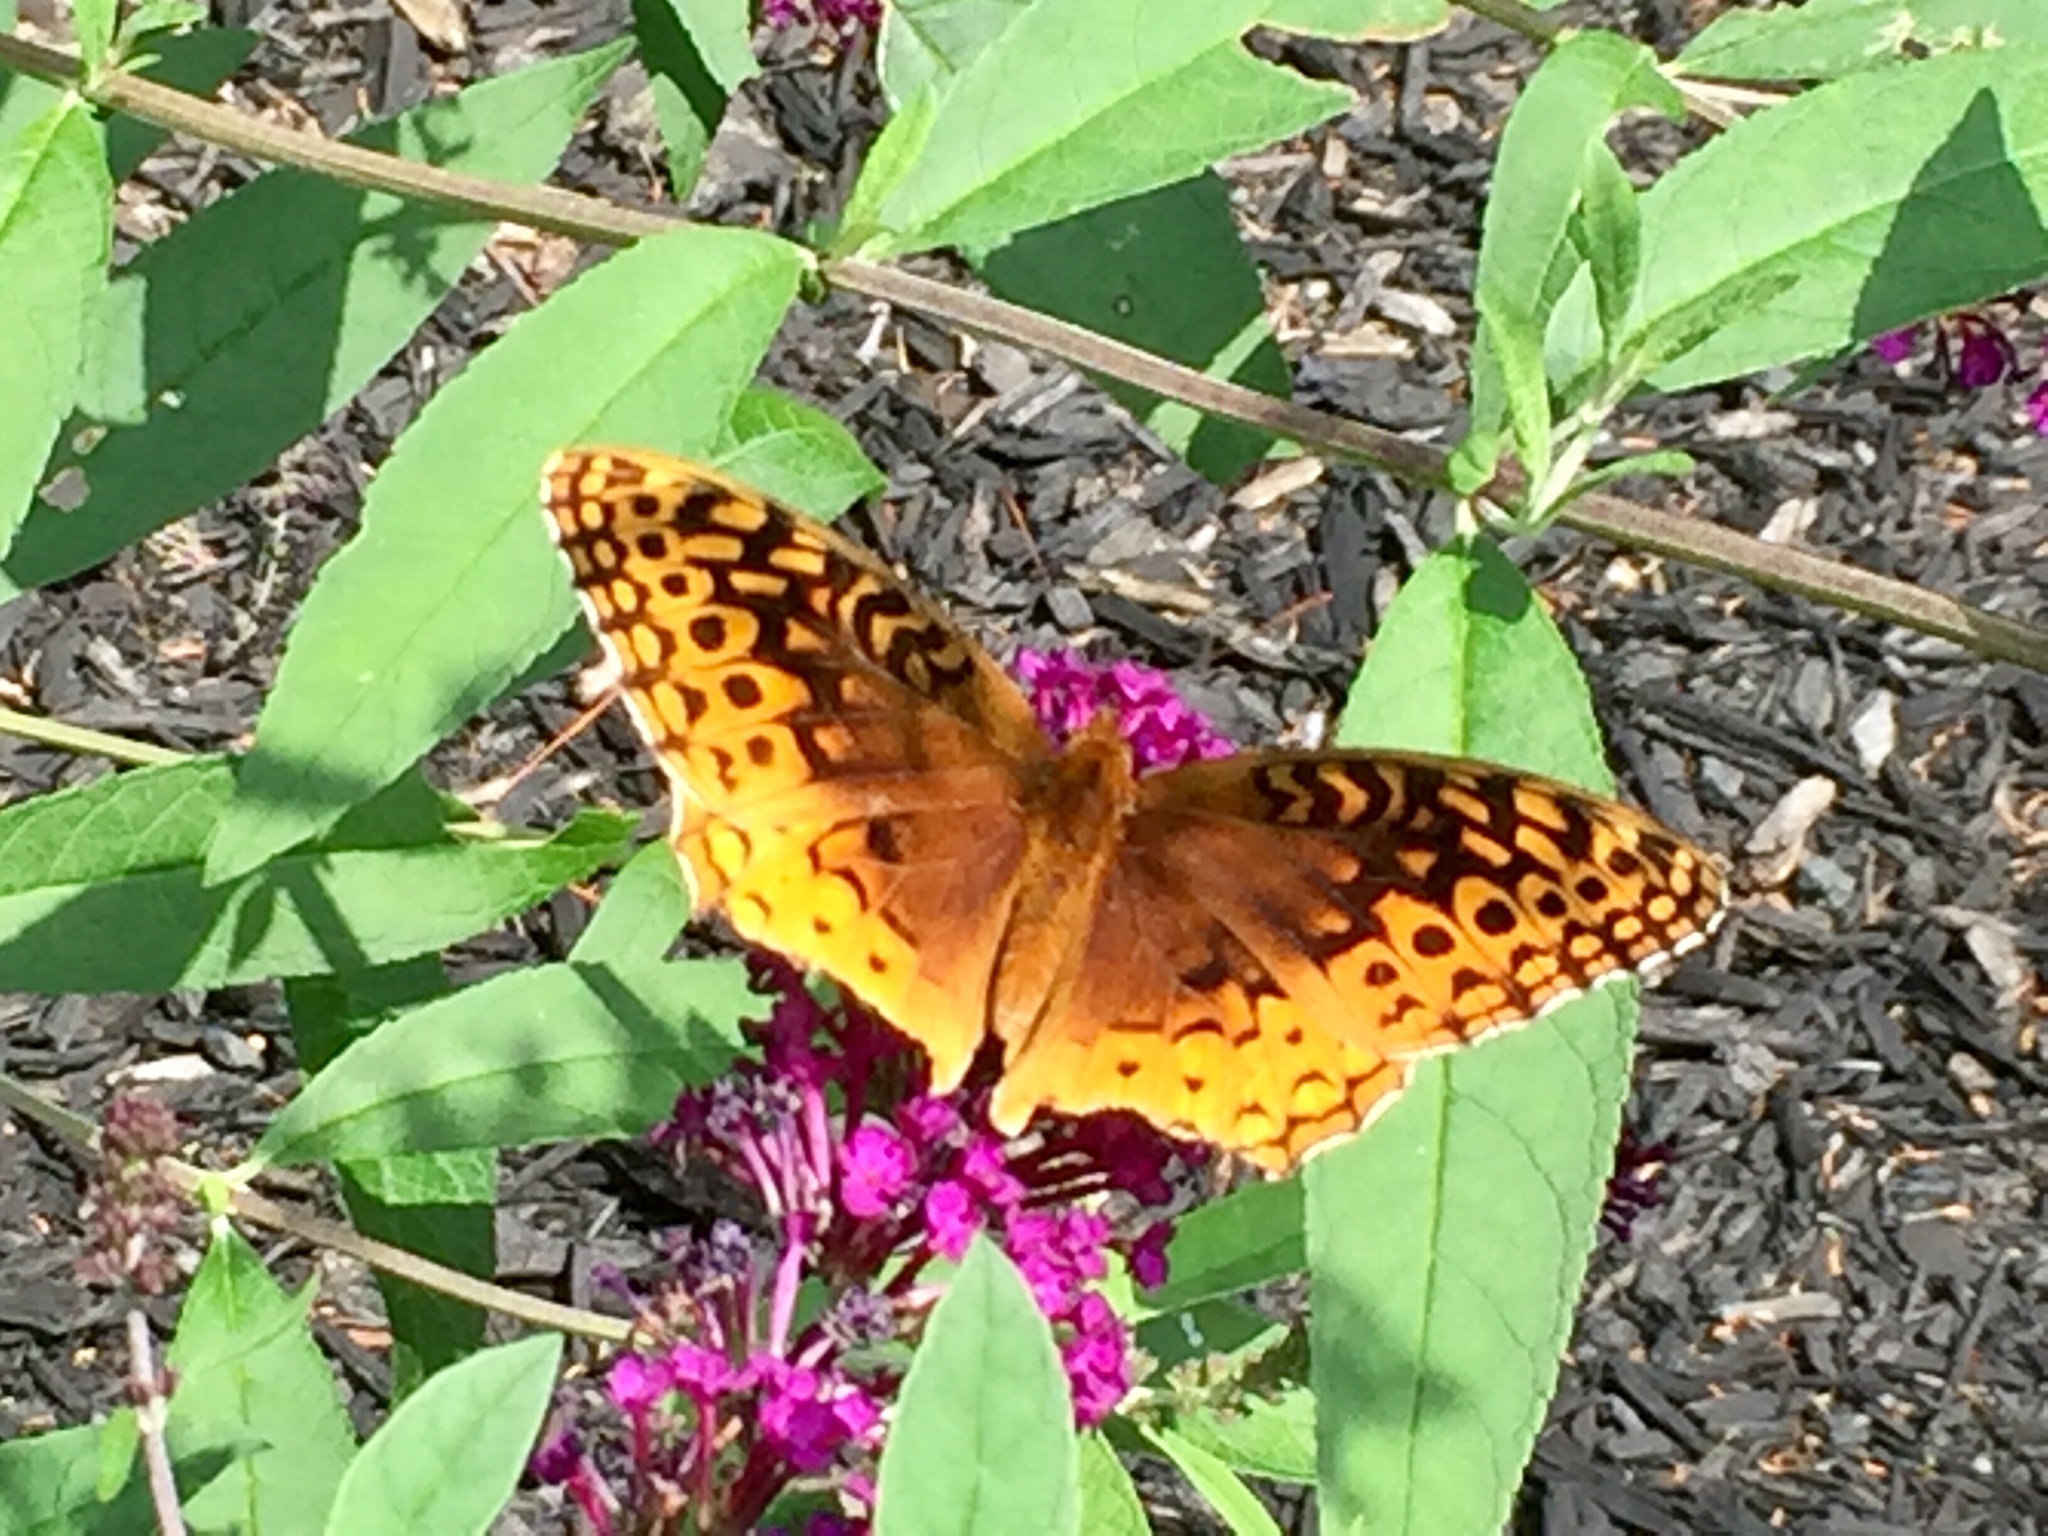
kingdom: Animalia
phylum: Arthropoda
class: Insecta
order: Lepidoptera
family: Nymphalidae
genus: Speyeria
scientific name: Speyeria cybele
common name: Great spangled fritillary
